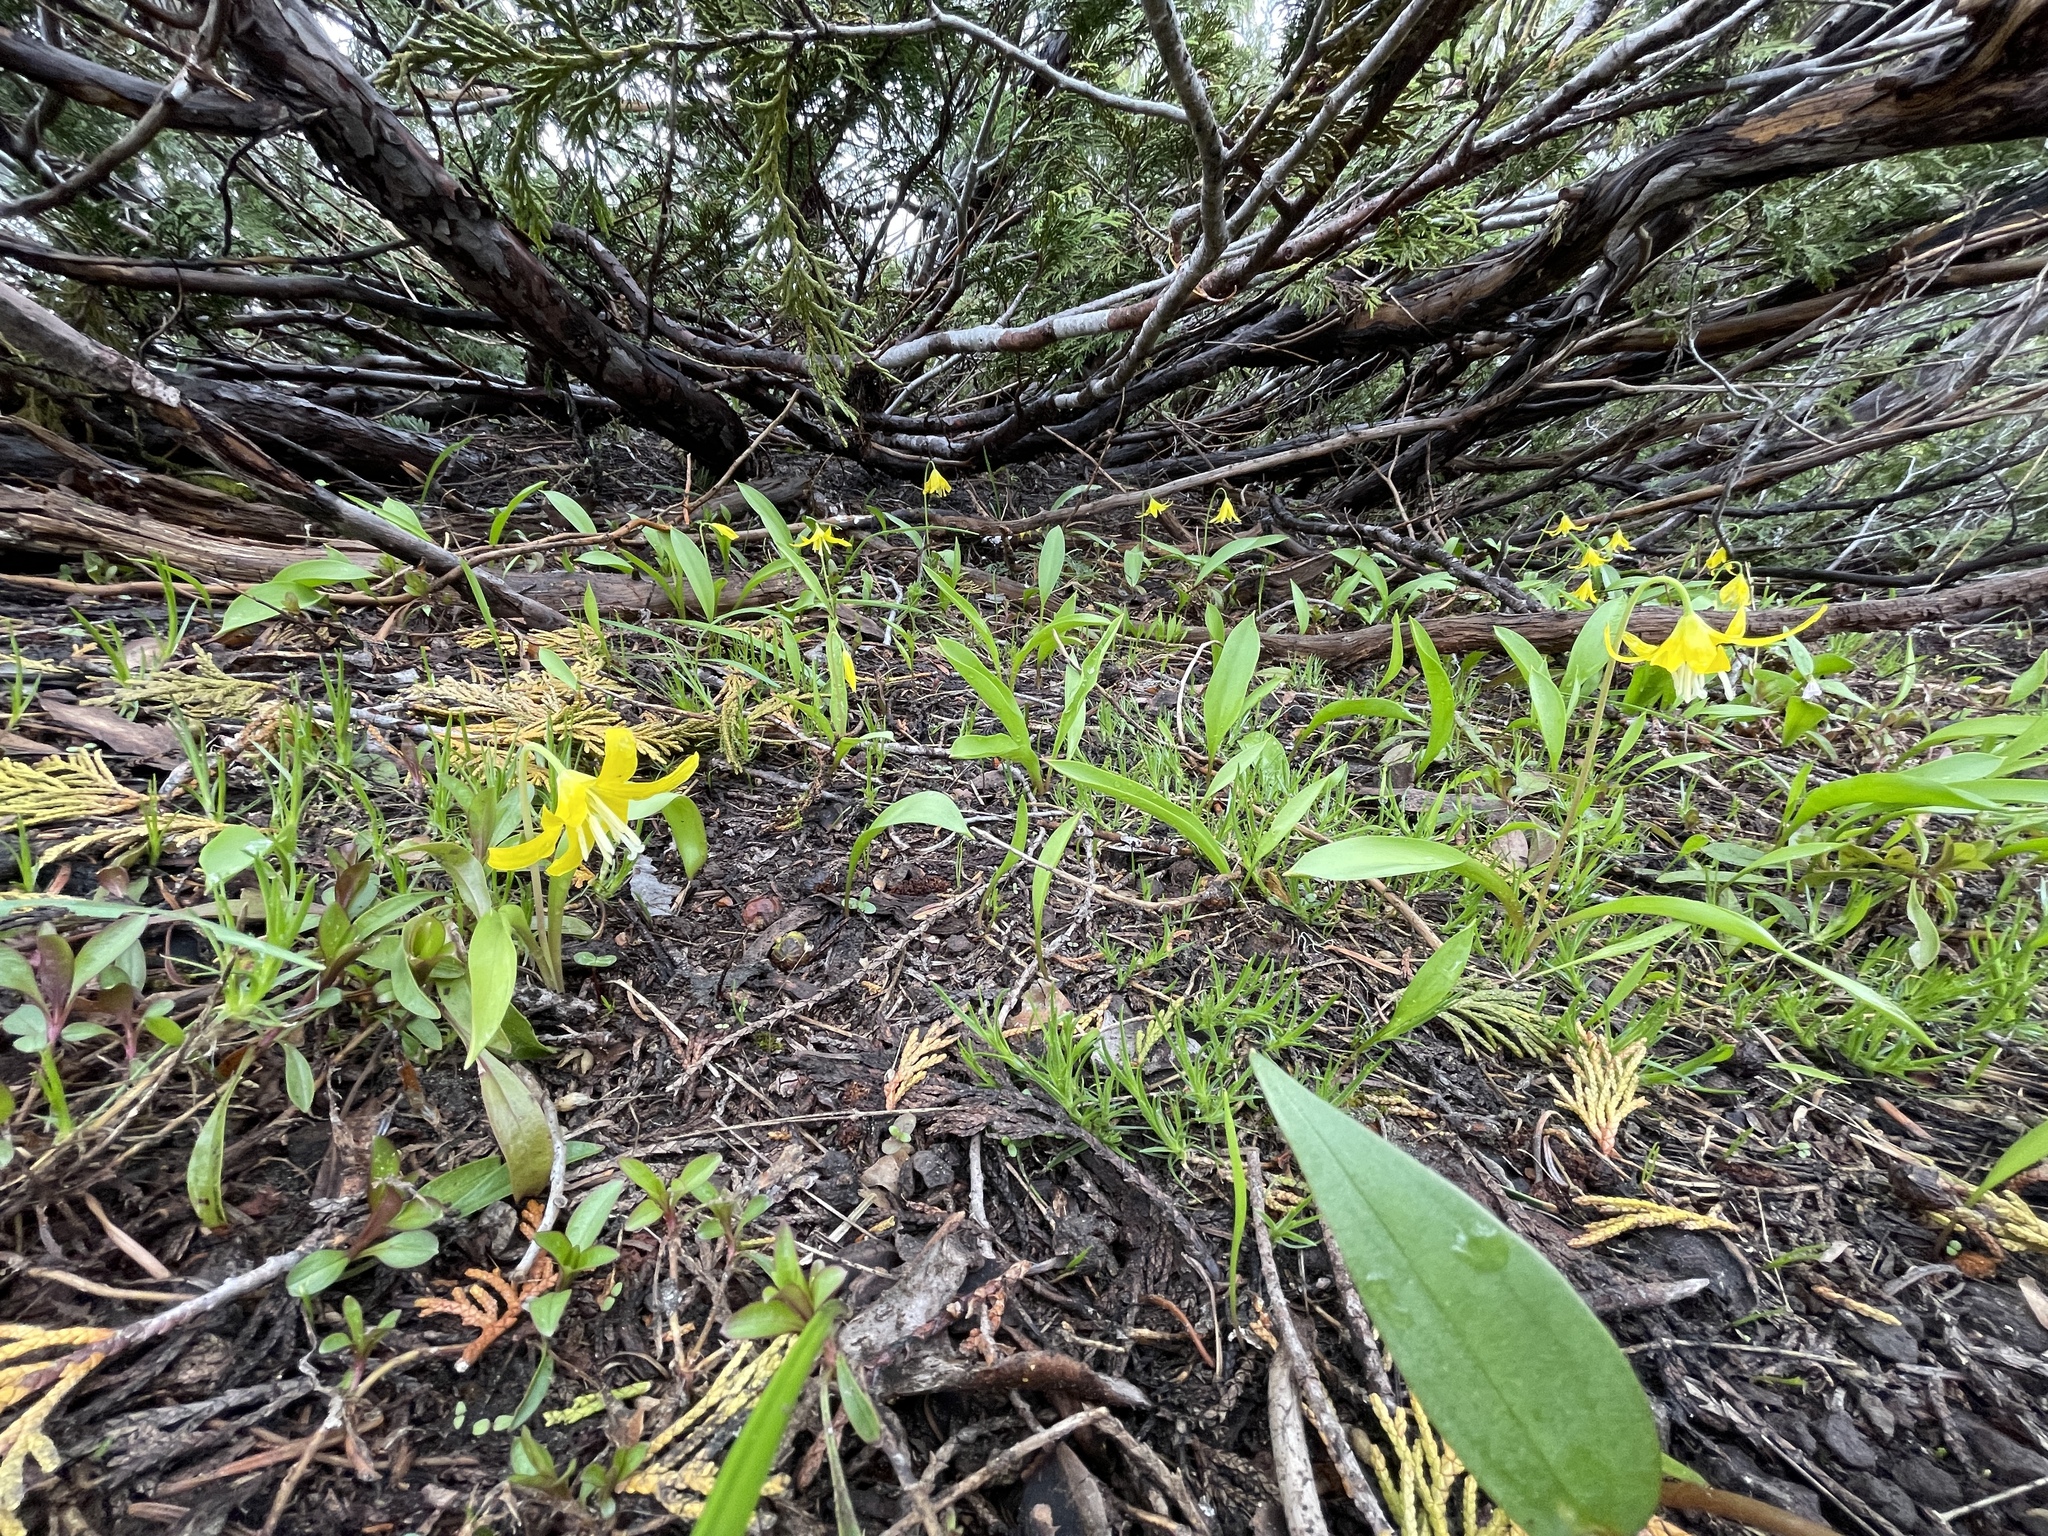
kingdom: Plantae
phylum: Tracheophyta
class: Liliopsida
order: Liliales
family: Liliaceae
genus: Erythronium
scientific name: Erythronium grandiflorum
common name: Avalanche-lily
